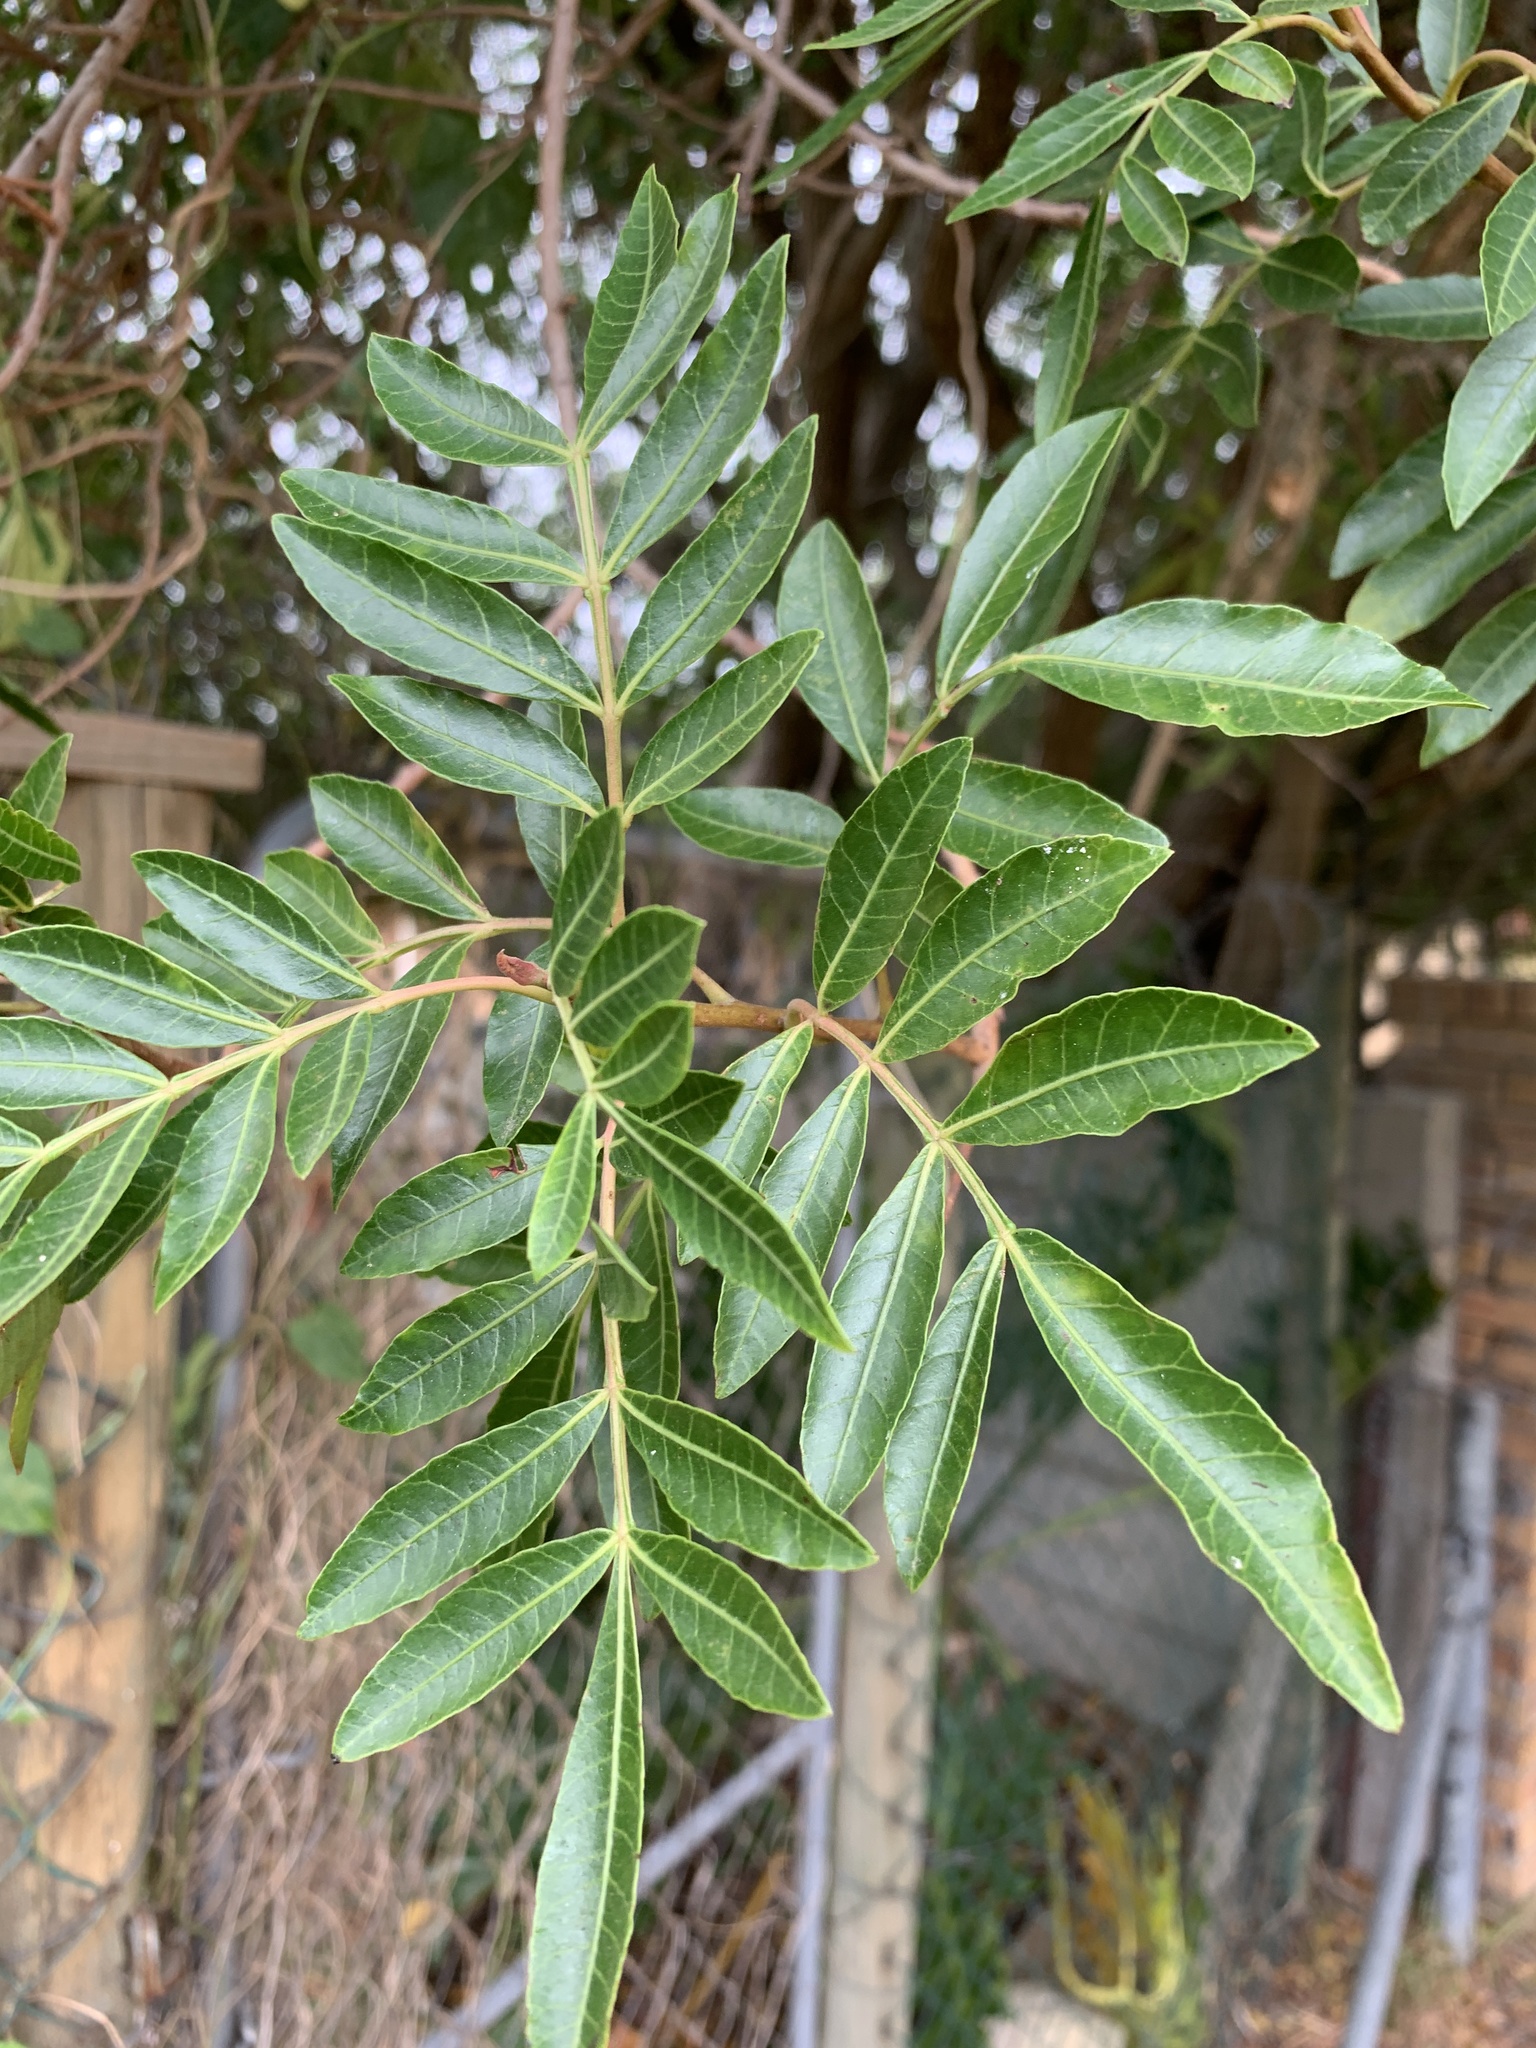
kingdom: Plantae
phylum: Tracheophyta
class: Magnoliopsida
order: Sapindales
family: Anacardiaceae
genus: Schinus
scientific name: Schinus terebinthifolia
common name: Brazilian peppertree
